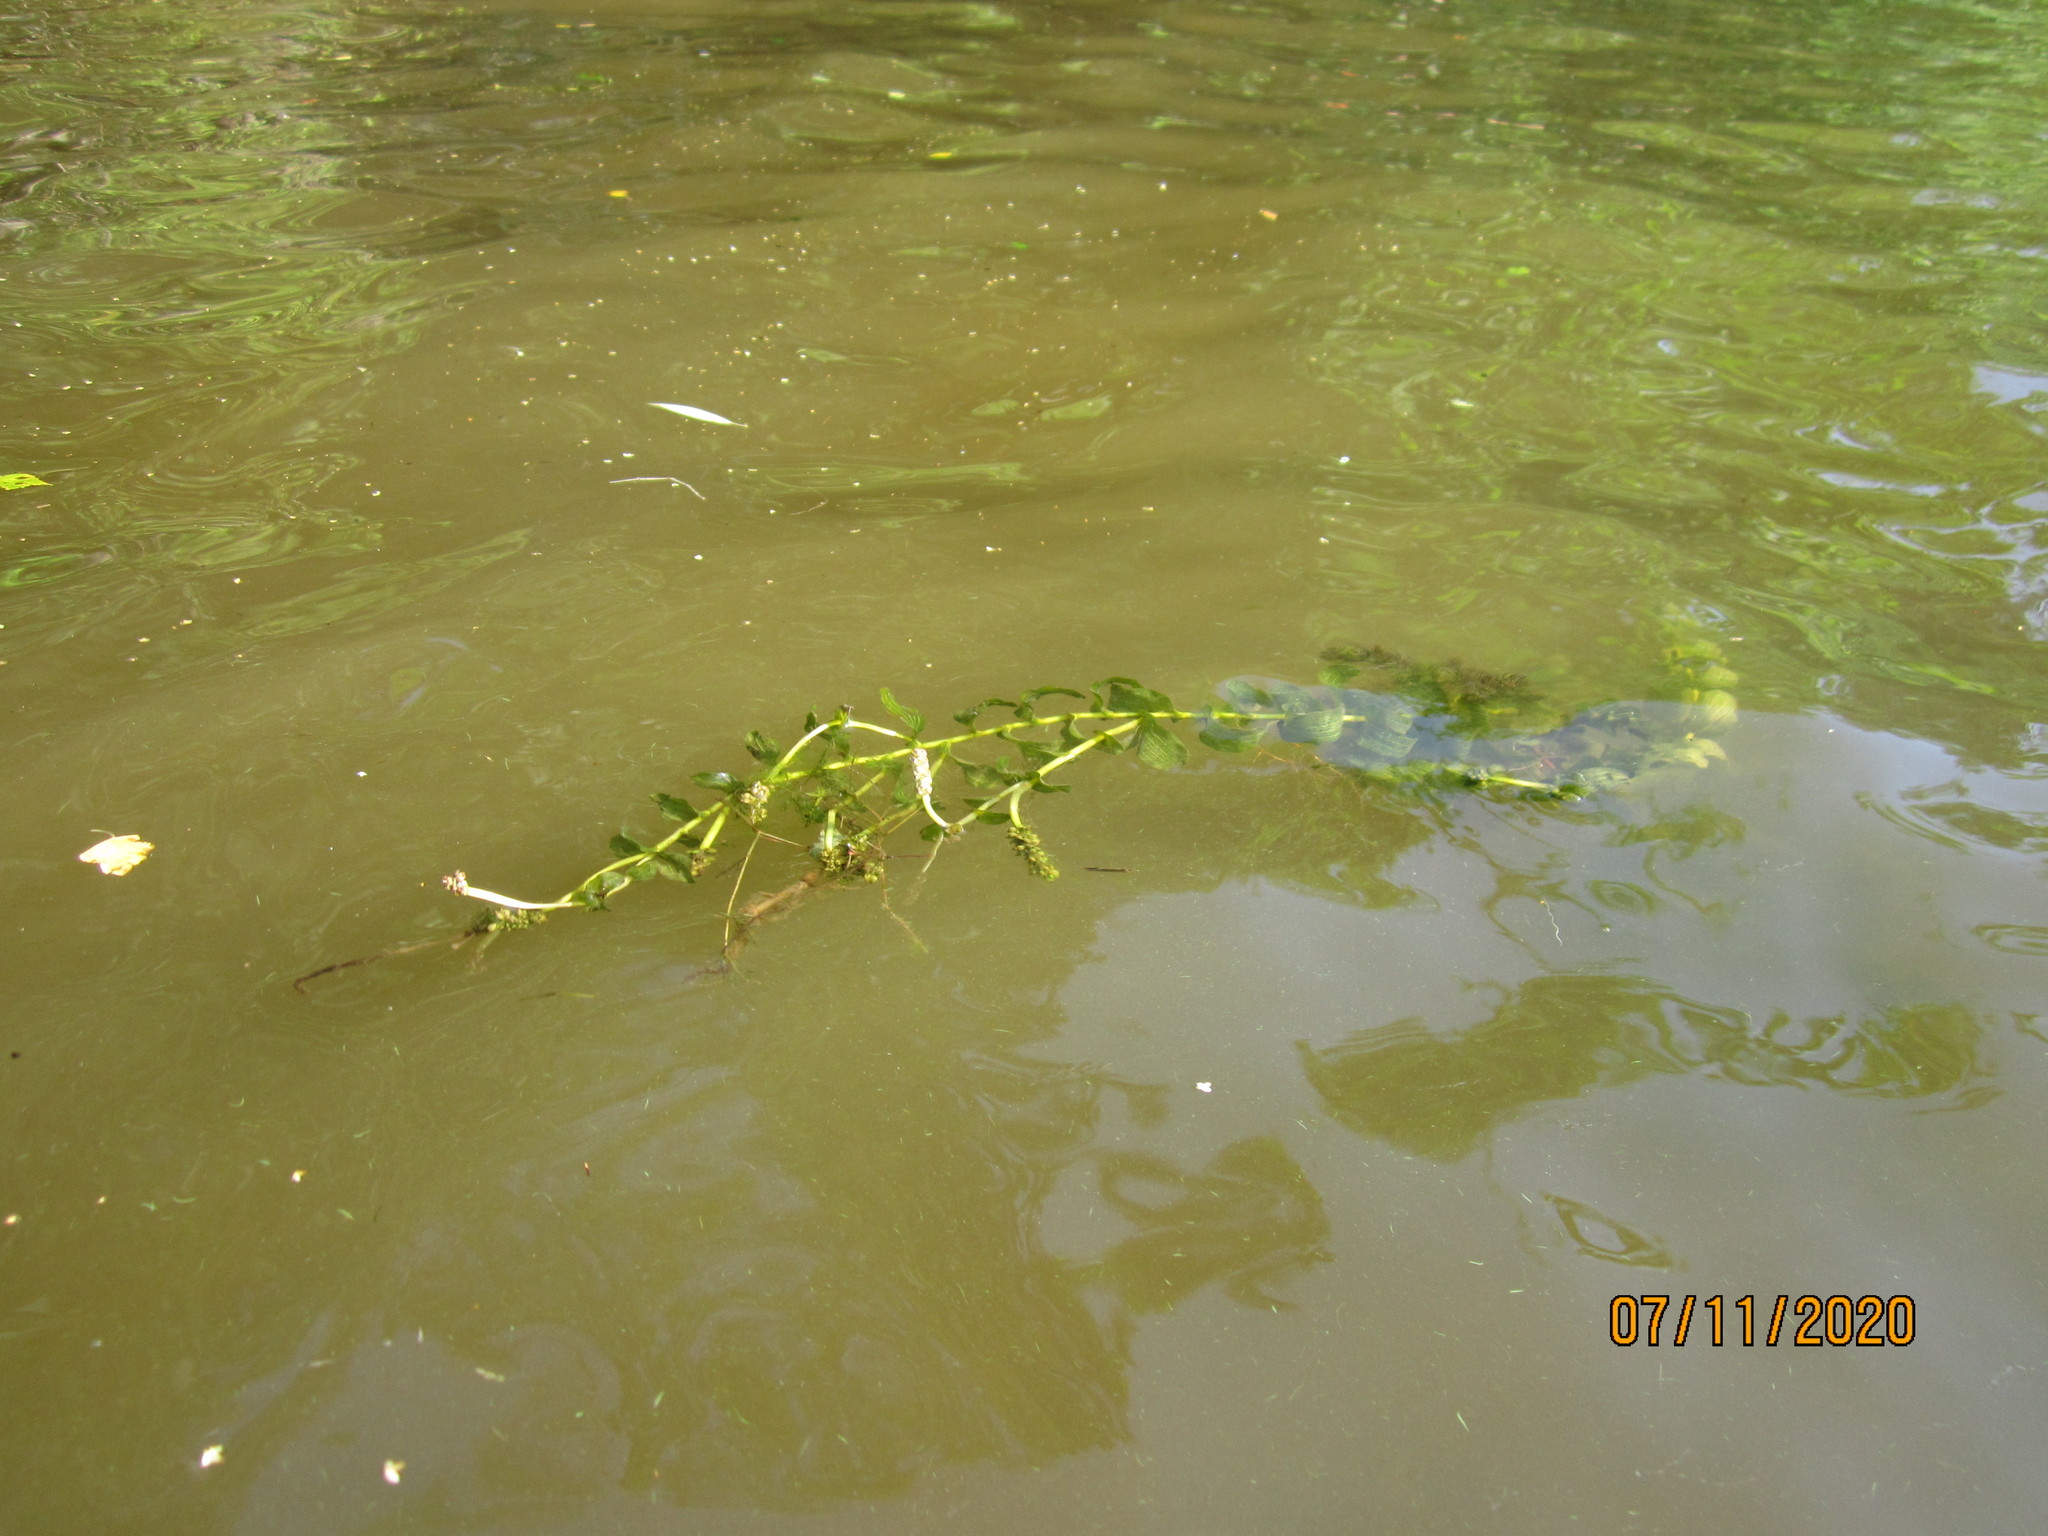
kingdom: Plantae
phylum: Tracheophyta
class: Liliopsida
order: Alismatales
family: Potamogetonaceae
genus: Potamogeton
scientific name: Potamogeton perfoliatus
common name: Perfoliate pondweed
